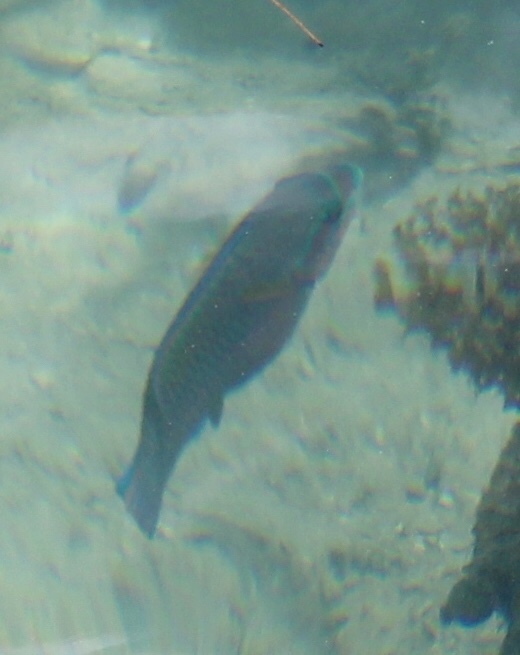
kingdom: Animalia
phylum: Chordata
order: Perciformes
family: Scaridae
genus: Scarus
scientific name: Scarus iseri
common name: Striped parrotfish
